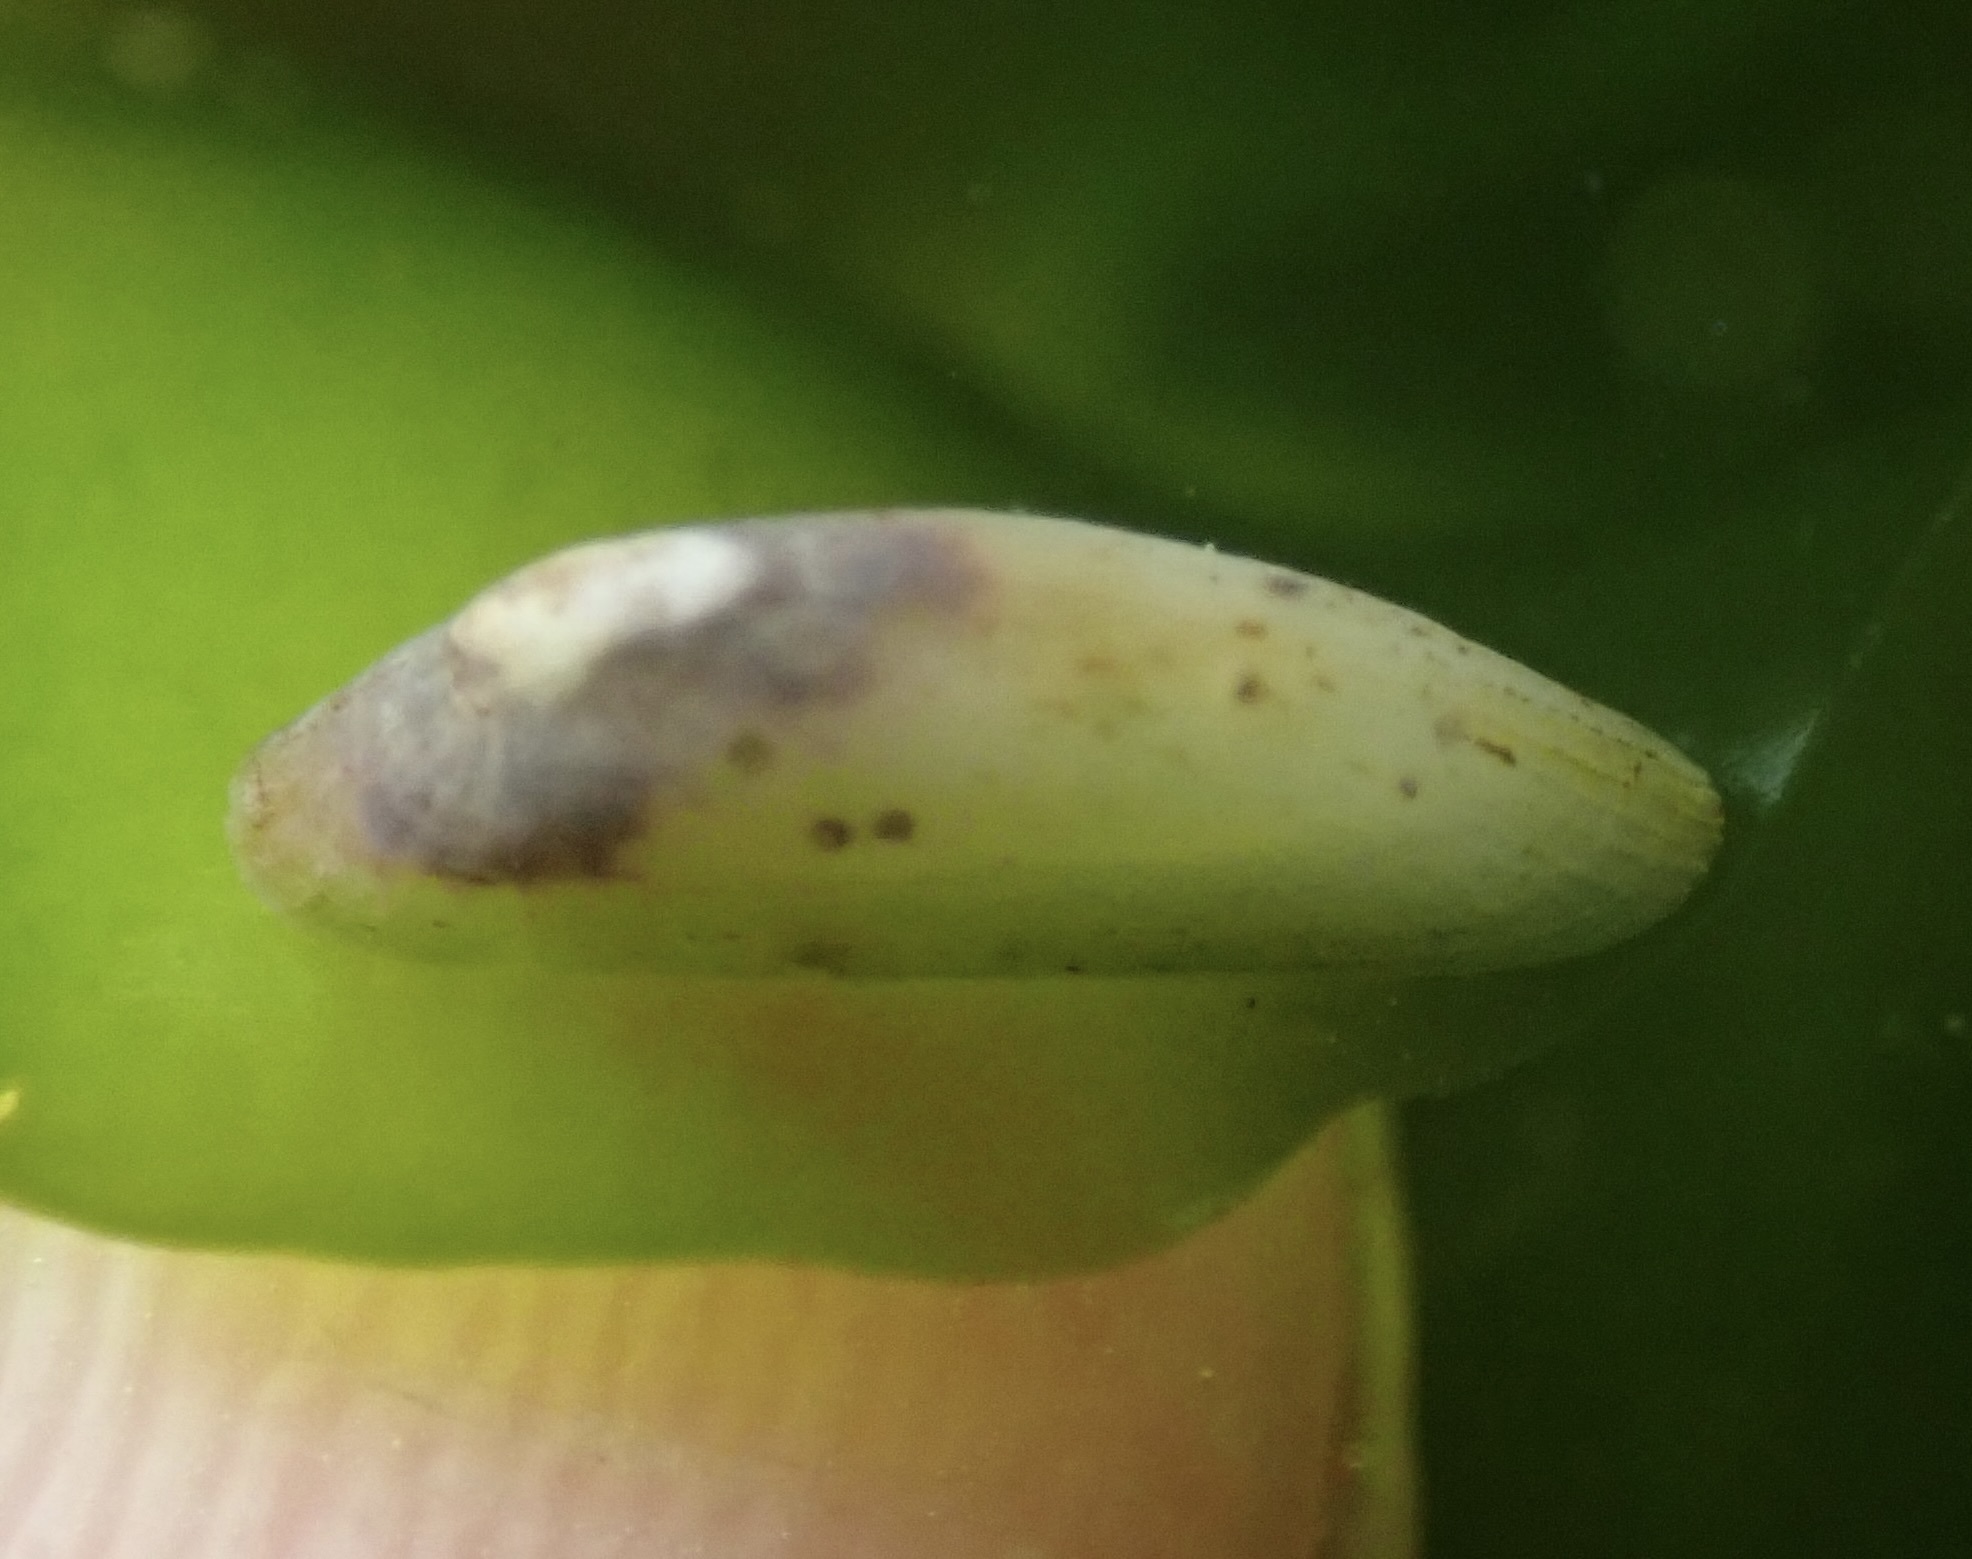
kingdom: Animalia
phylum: Mollusca
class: Gastropoda
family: Lottiidae
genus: Tectura
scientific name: Tectura paleacea
